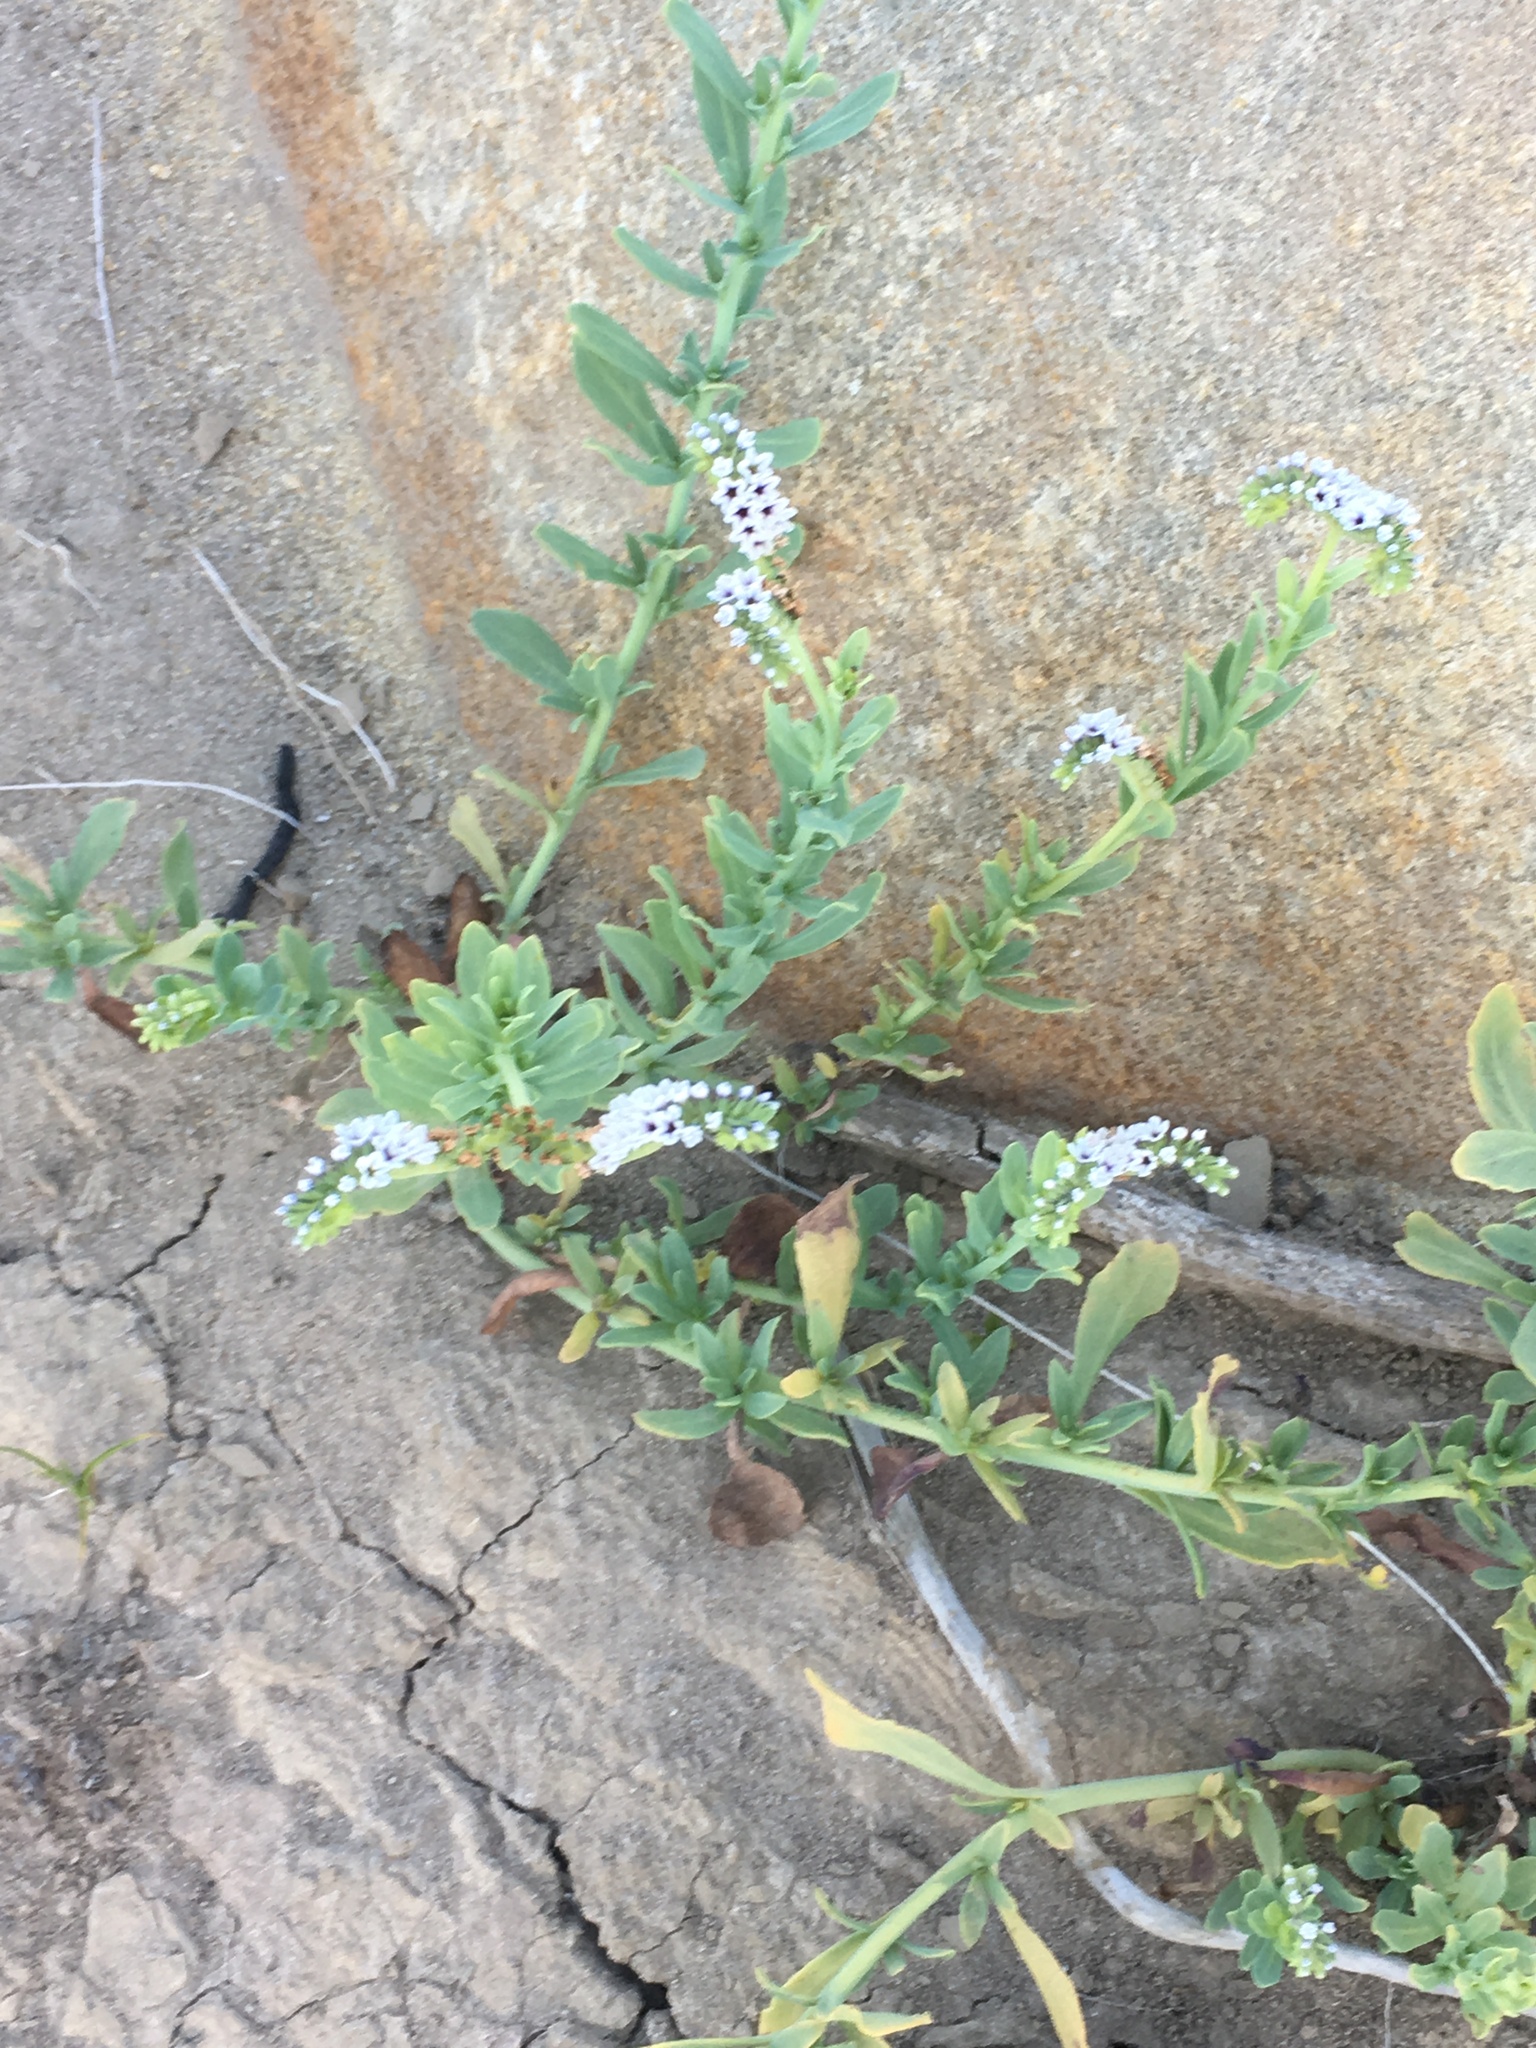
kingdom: Plantae
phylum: Tracheophyta
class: Magnoliopsida
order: Boraginales
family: Heliotropiaceae
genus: Heliotropium
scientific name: Heliotropium curassavicum
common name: Seaside heliotrope
